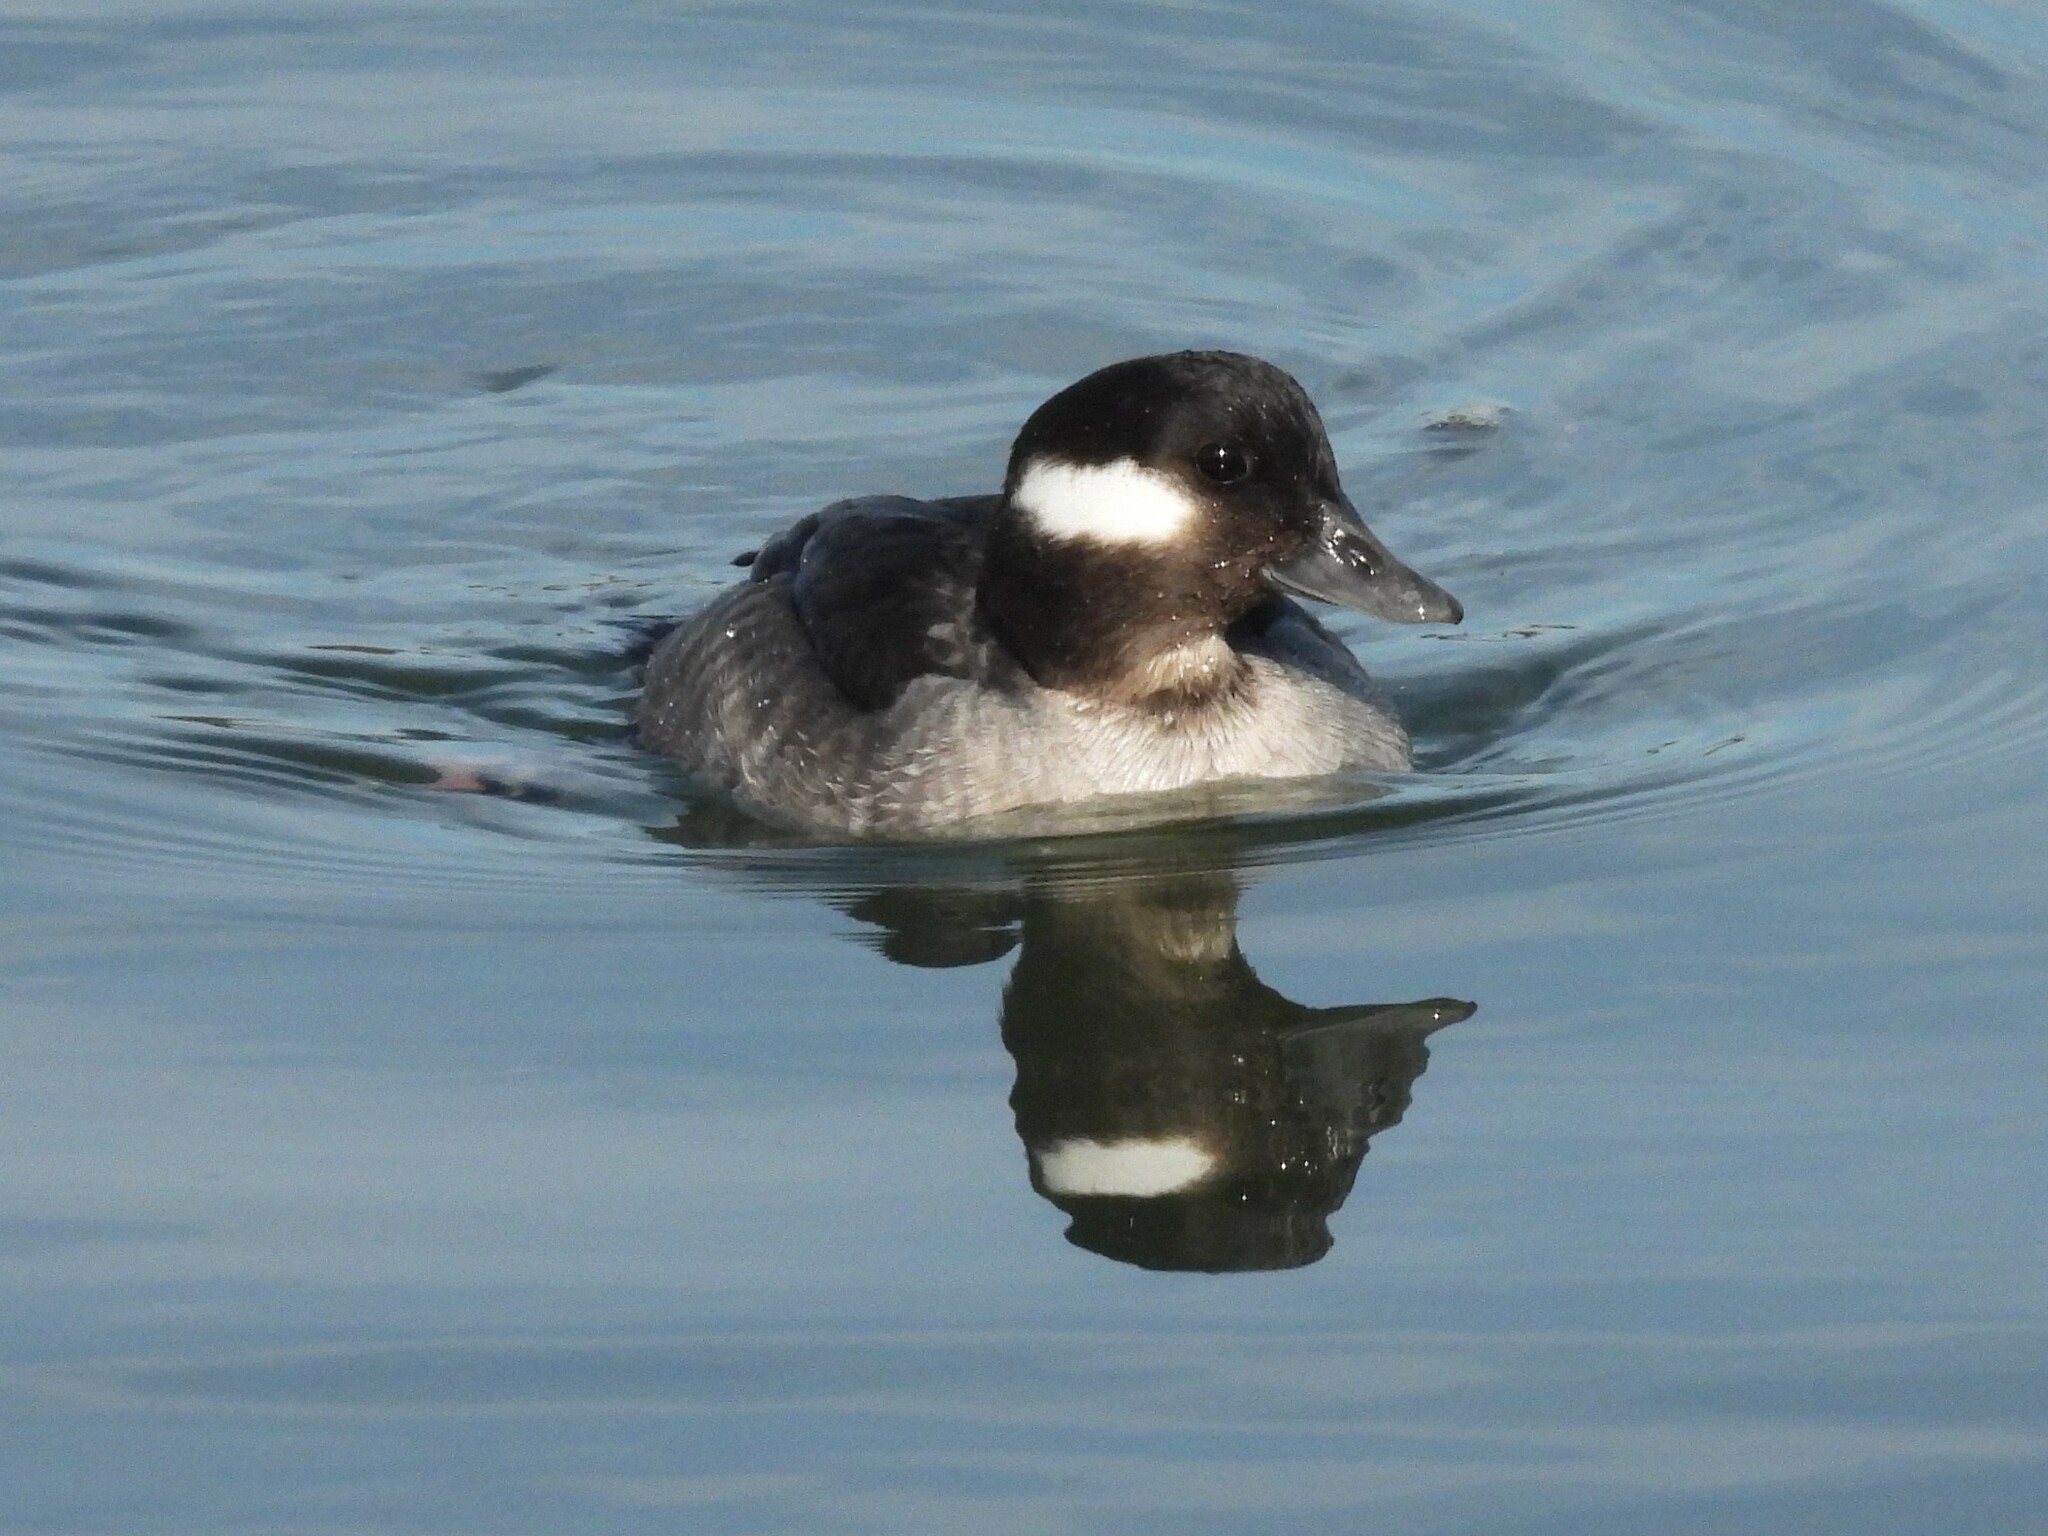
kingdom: Animalia
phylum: Chordata
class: Aves
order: Anseriformes
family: Anatidae
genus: Bucephala
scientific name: Bucephala albeola
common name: Bufflehead
